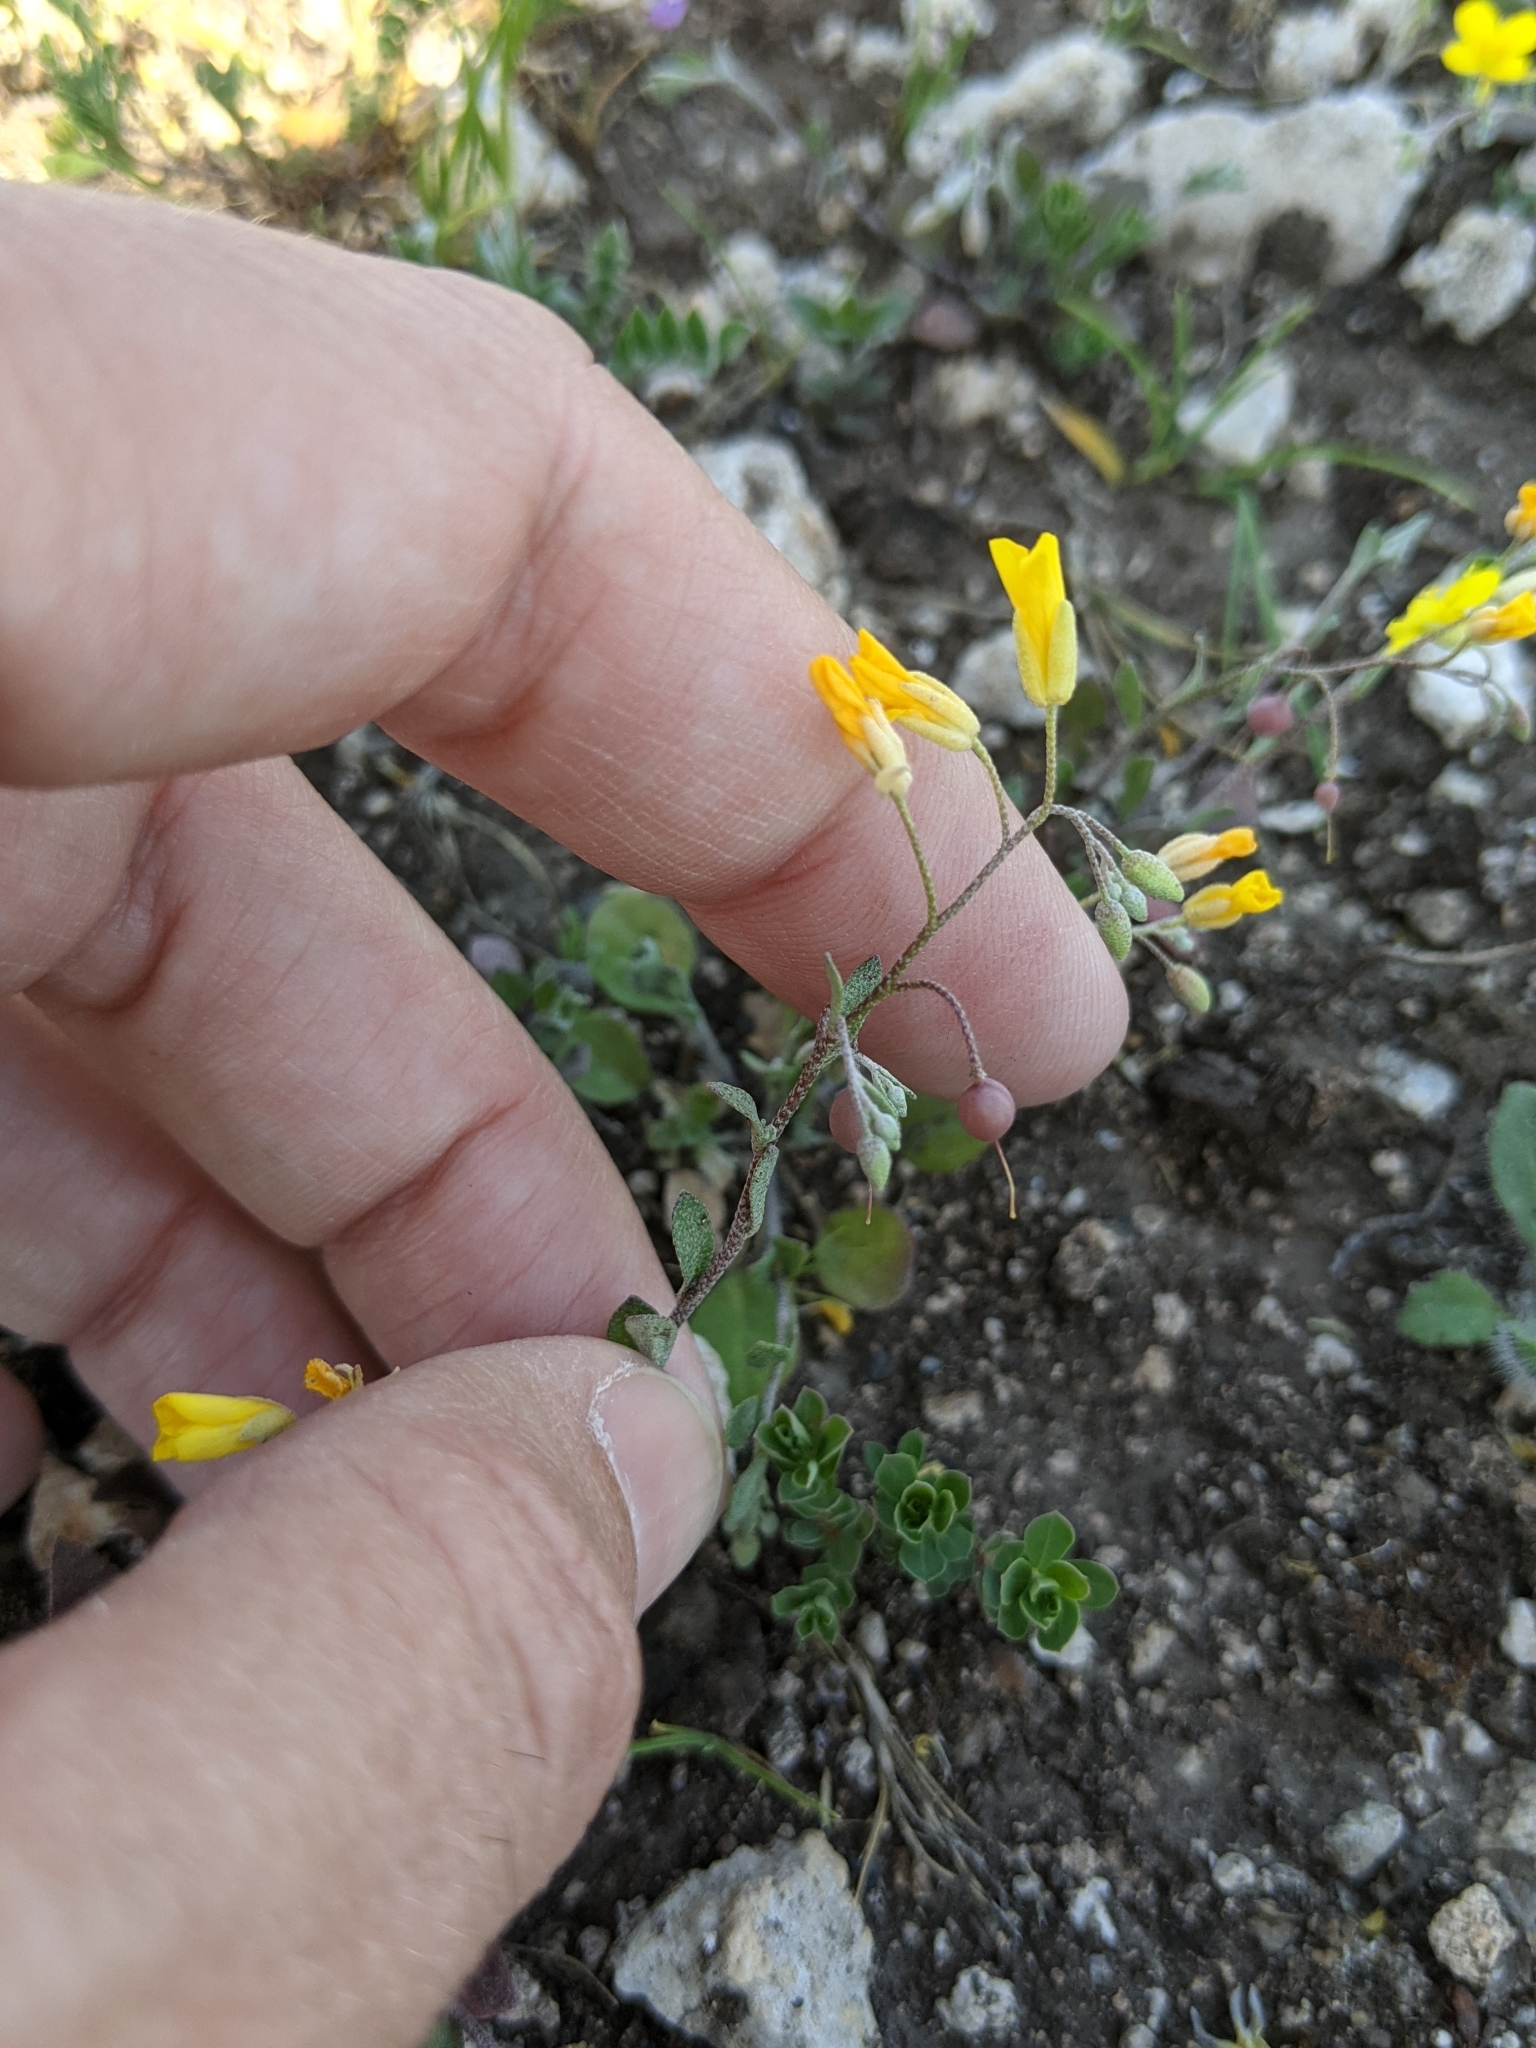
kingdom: Plantae
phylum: Tracheophyta
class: Magnoliopsida
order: Brassicales
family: Brassicaceae
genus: Physaria
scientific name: Physaria recurvata
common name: Gaslight bladderpod
